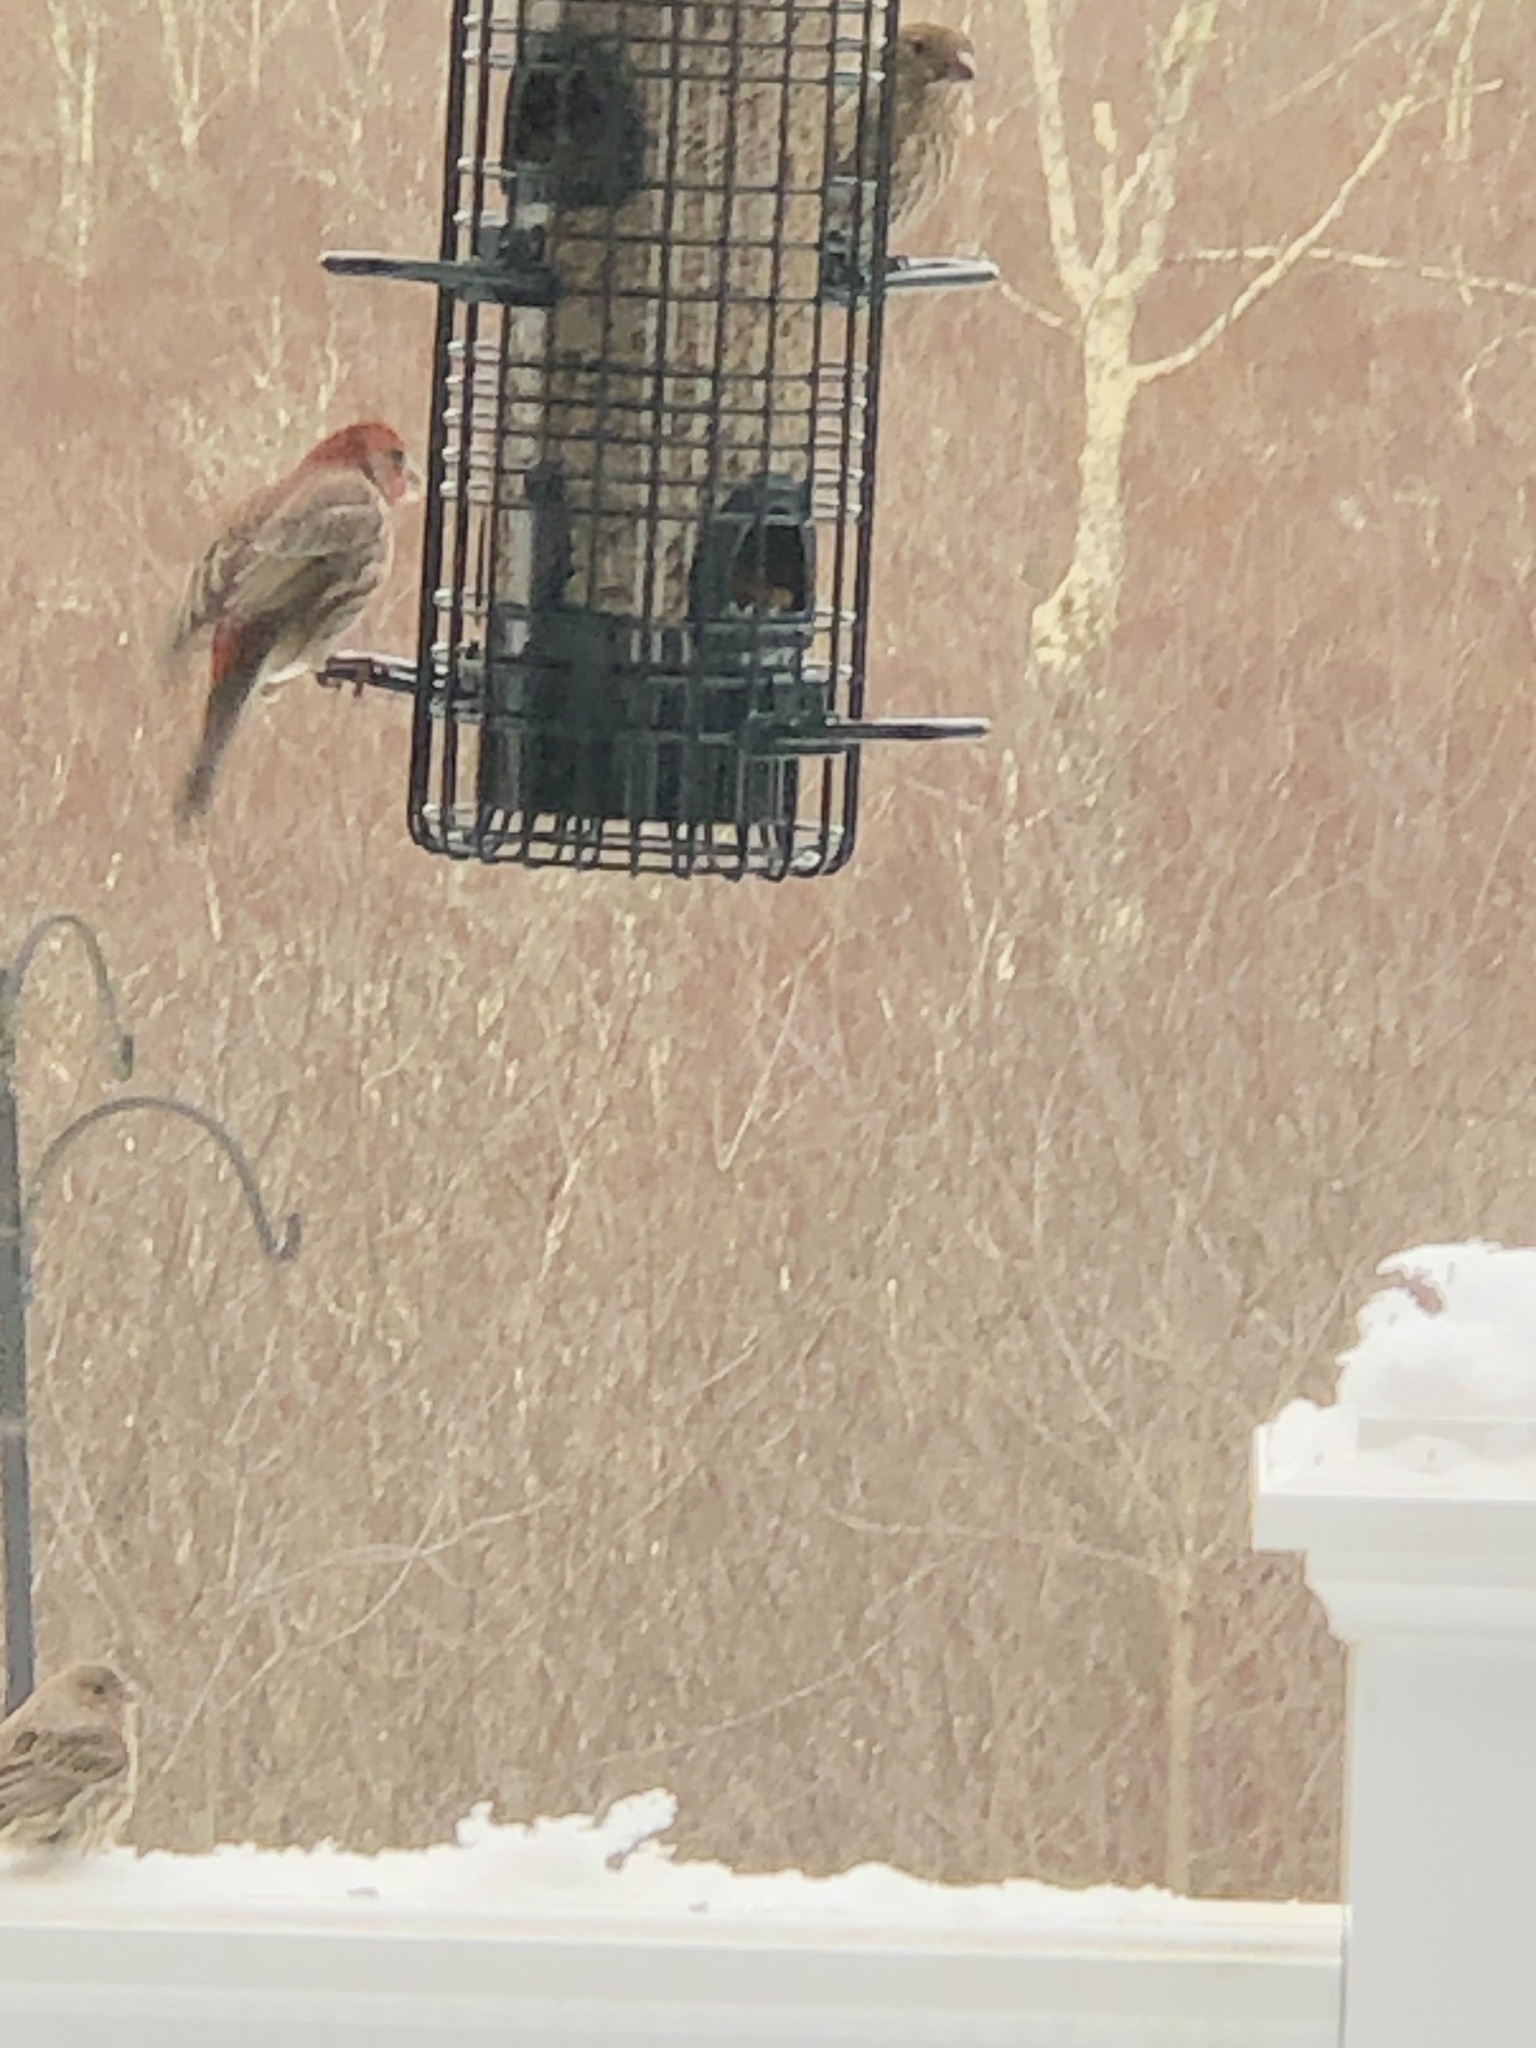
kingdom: Animalia
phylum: Chordata
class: Aves
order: Passeriformes
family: Fringillidae
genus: Haemorhous
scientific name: Haemorhous mexicanus
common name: House finch
